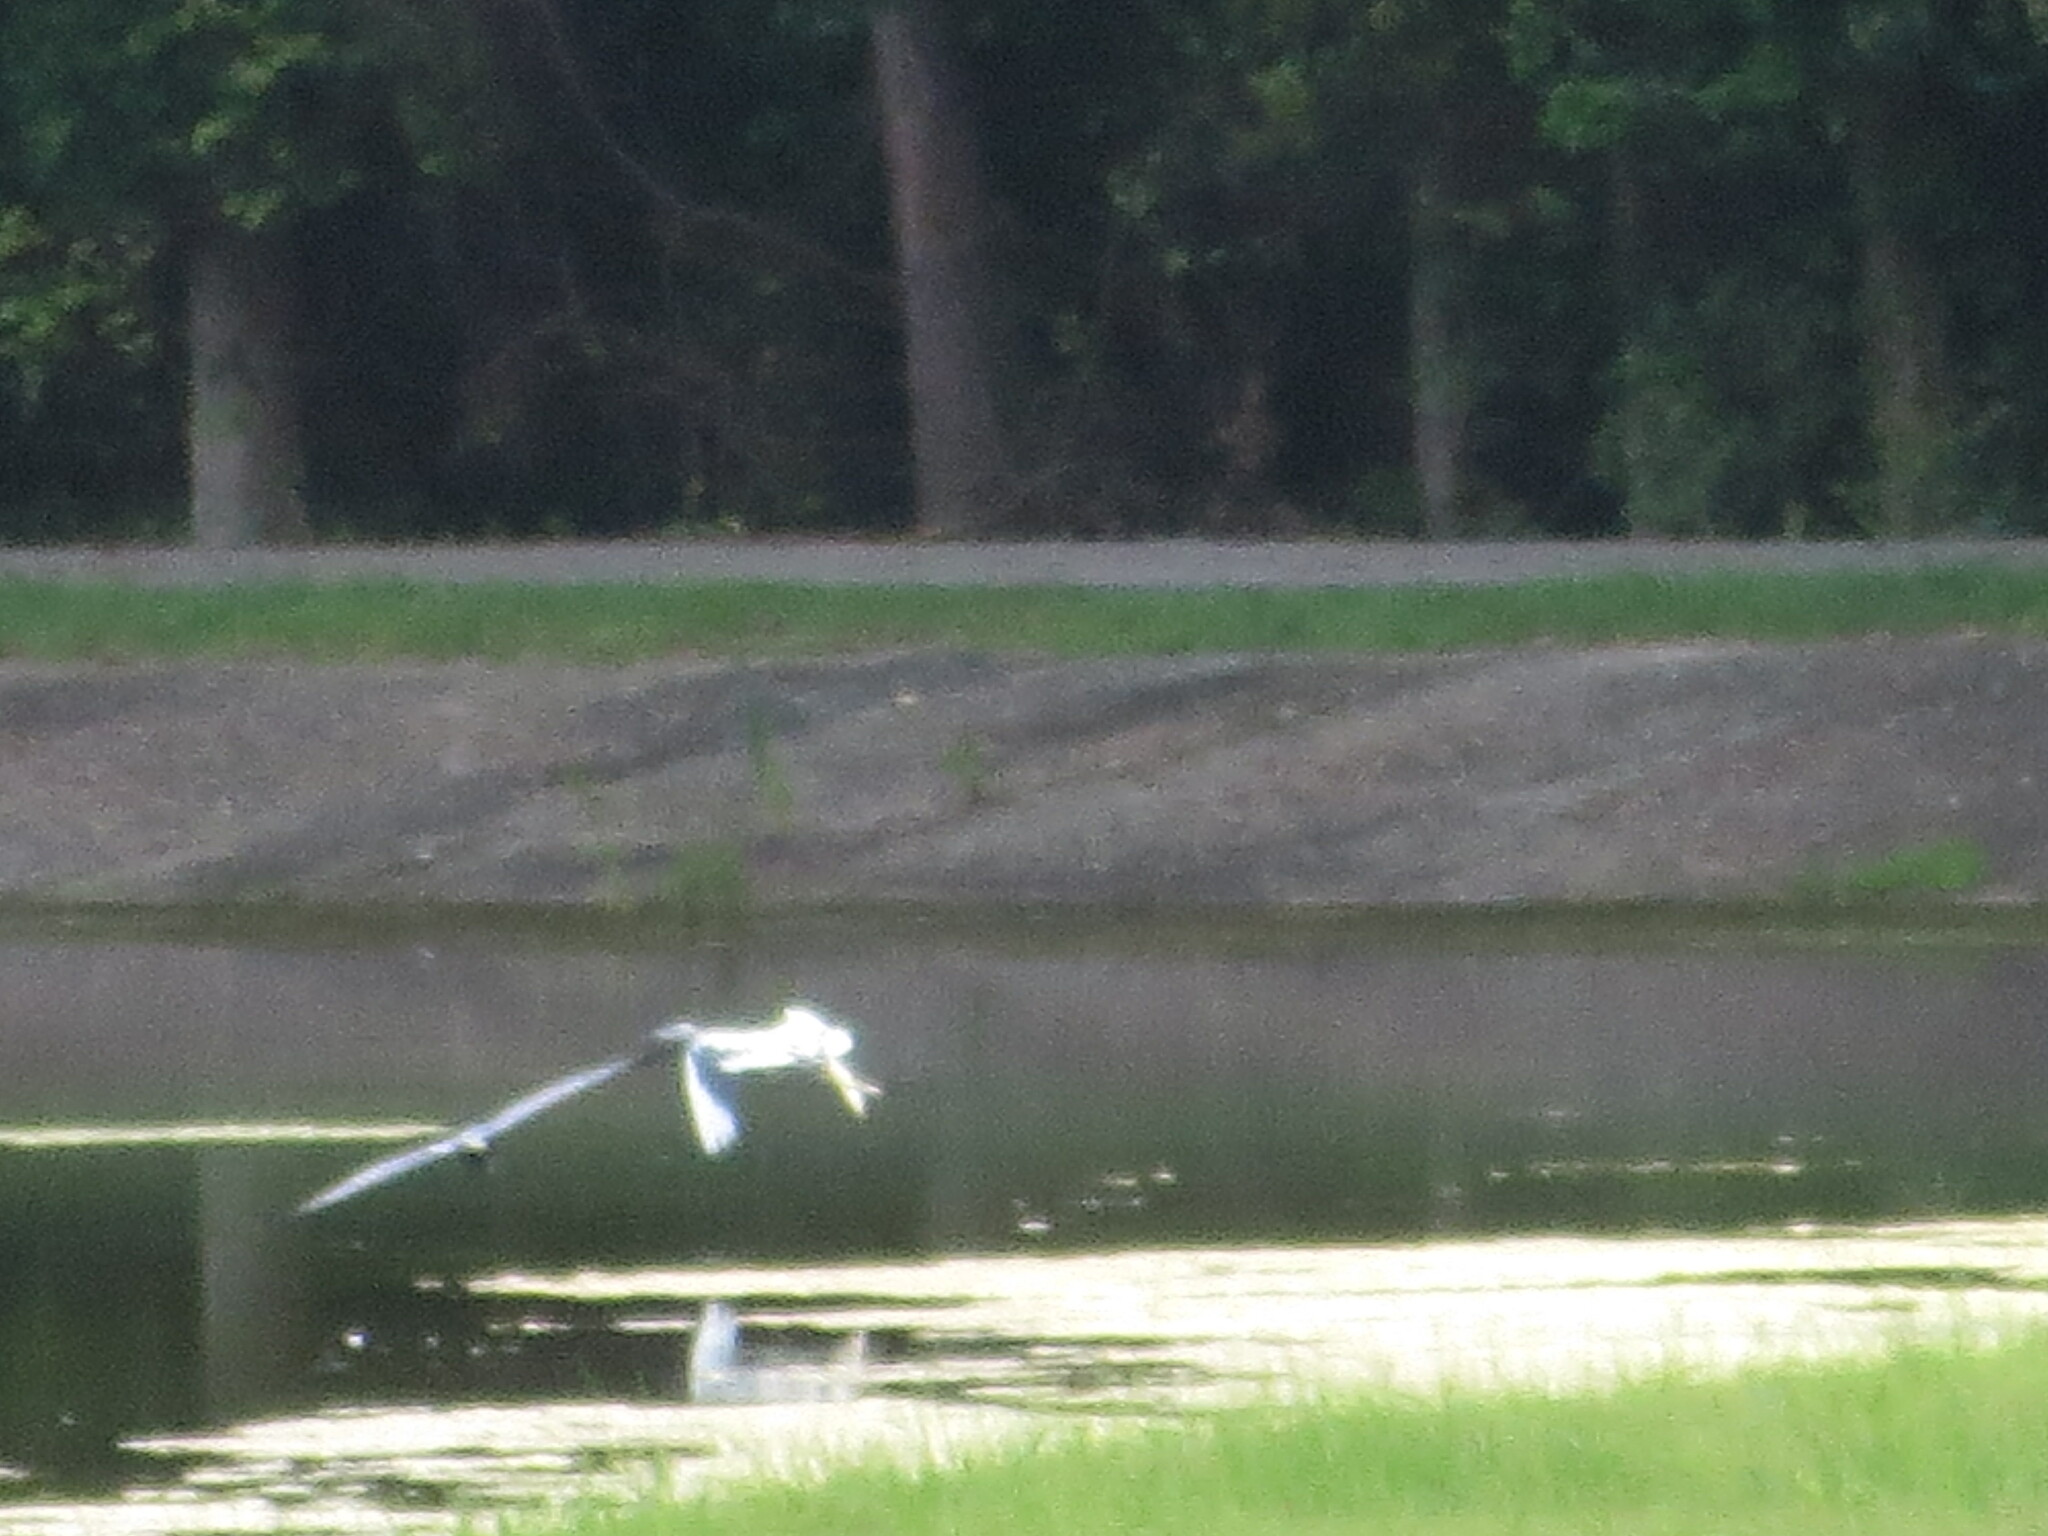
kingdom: Animalia
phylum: Chordata
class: Aves
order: Pelecaniformes
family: Ardeidae
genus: Egretta
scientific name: Egretta caerulea
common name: Little blue heron
